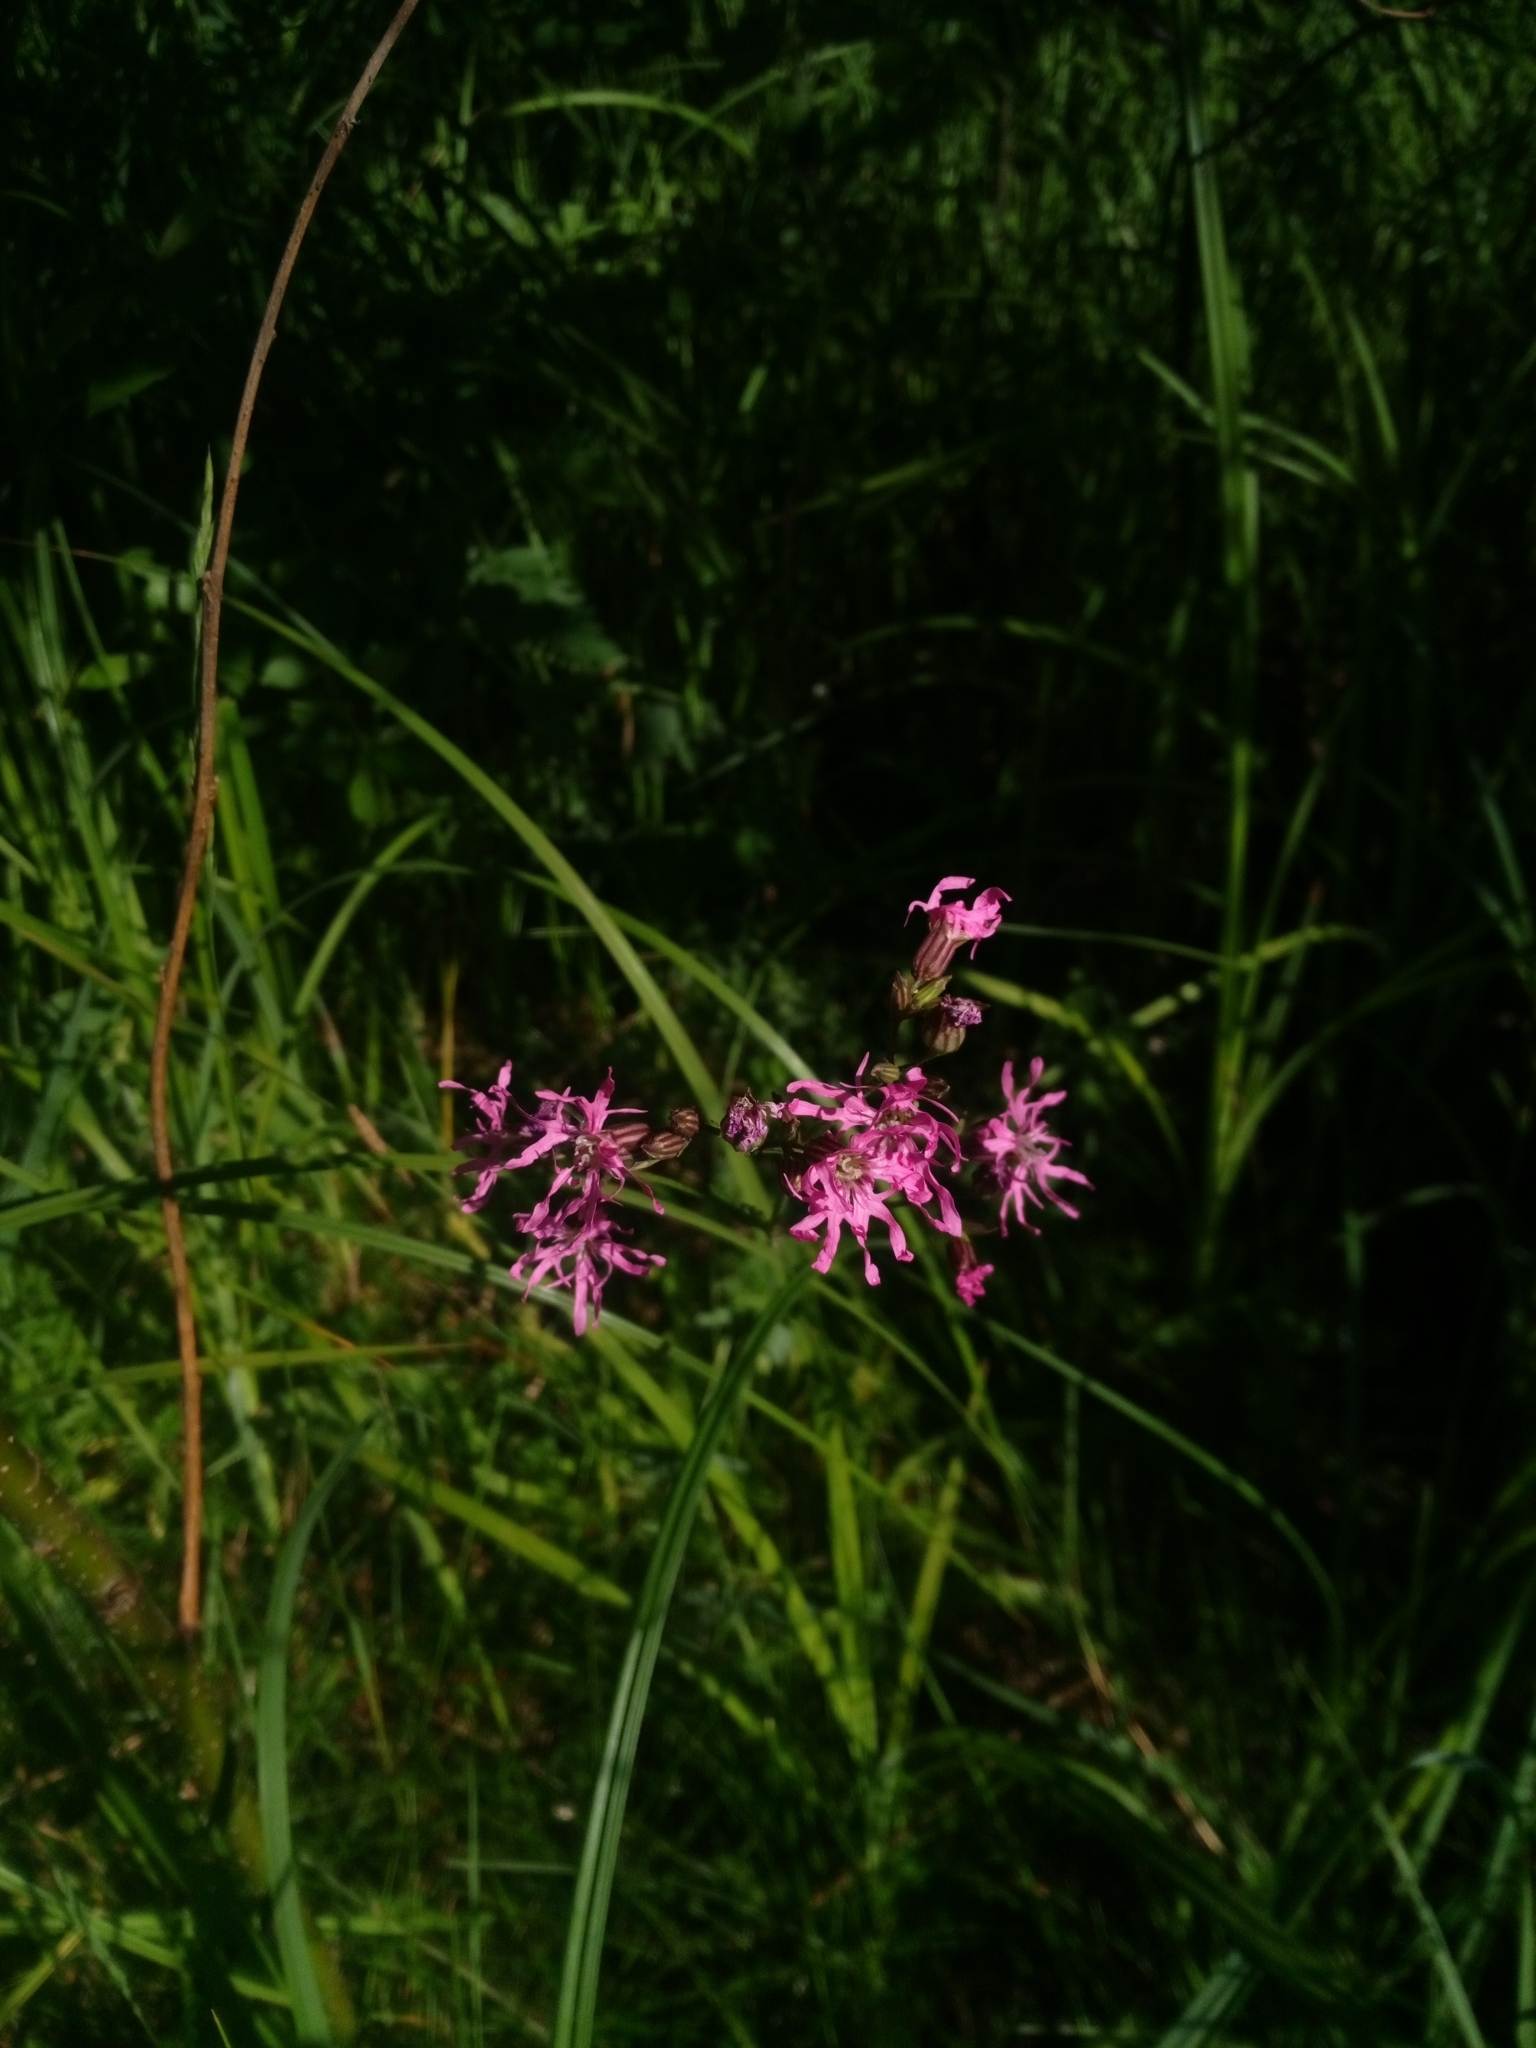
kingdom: Plantae
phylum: Tracheophyta
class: Magnoliopsida
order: Caryophyllales
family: Caryophyllaceae
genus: Silene
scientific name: Silene flos-cuculi
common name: Ragged-robin
